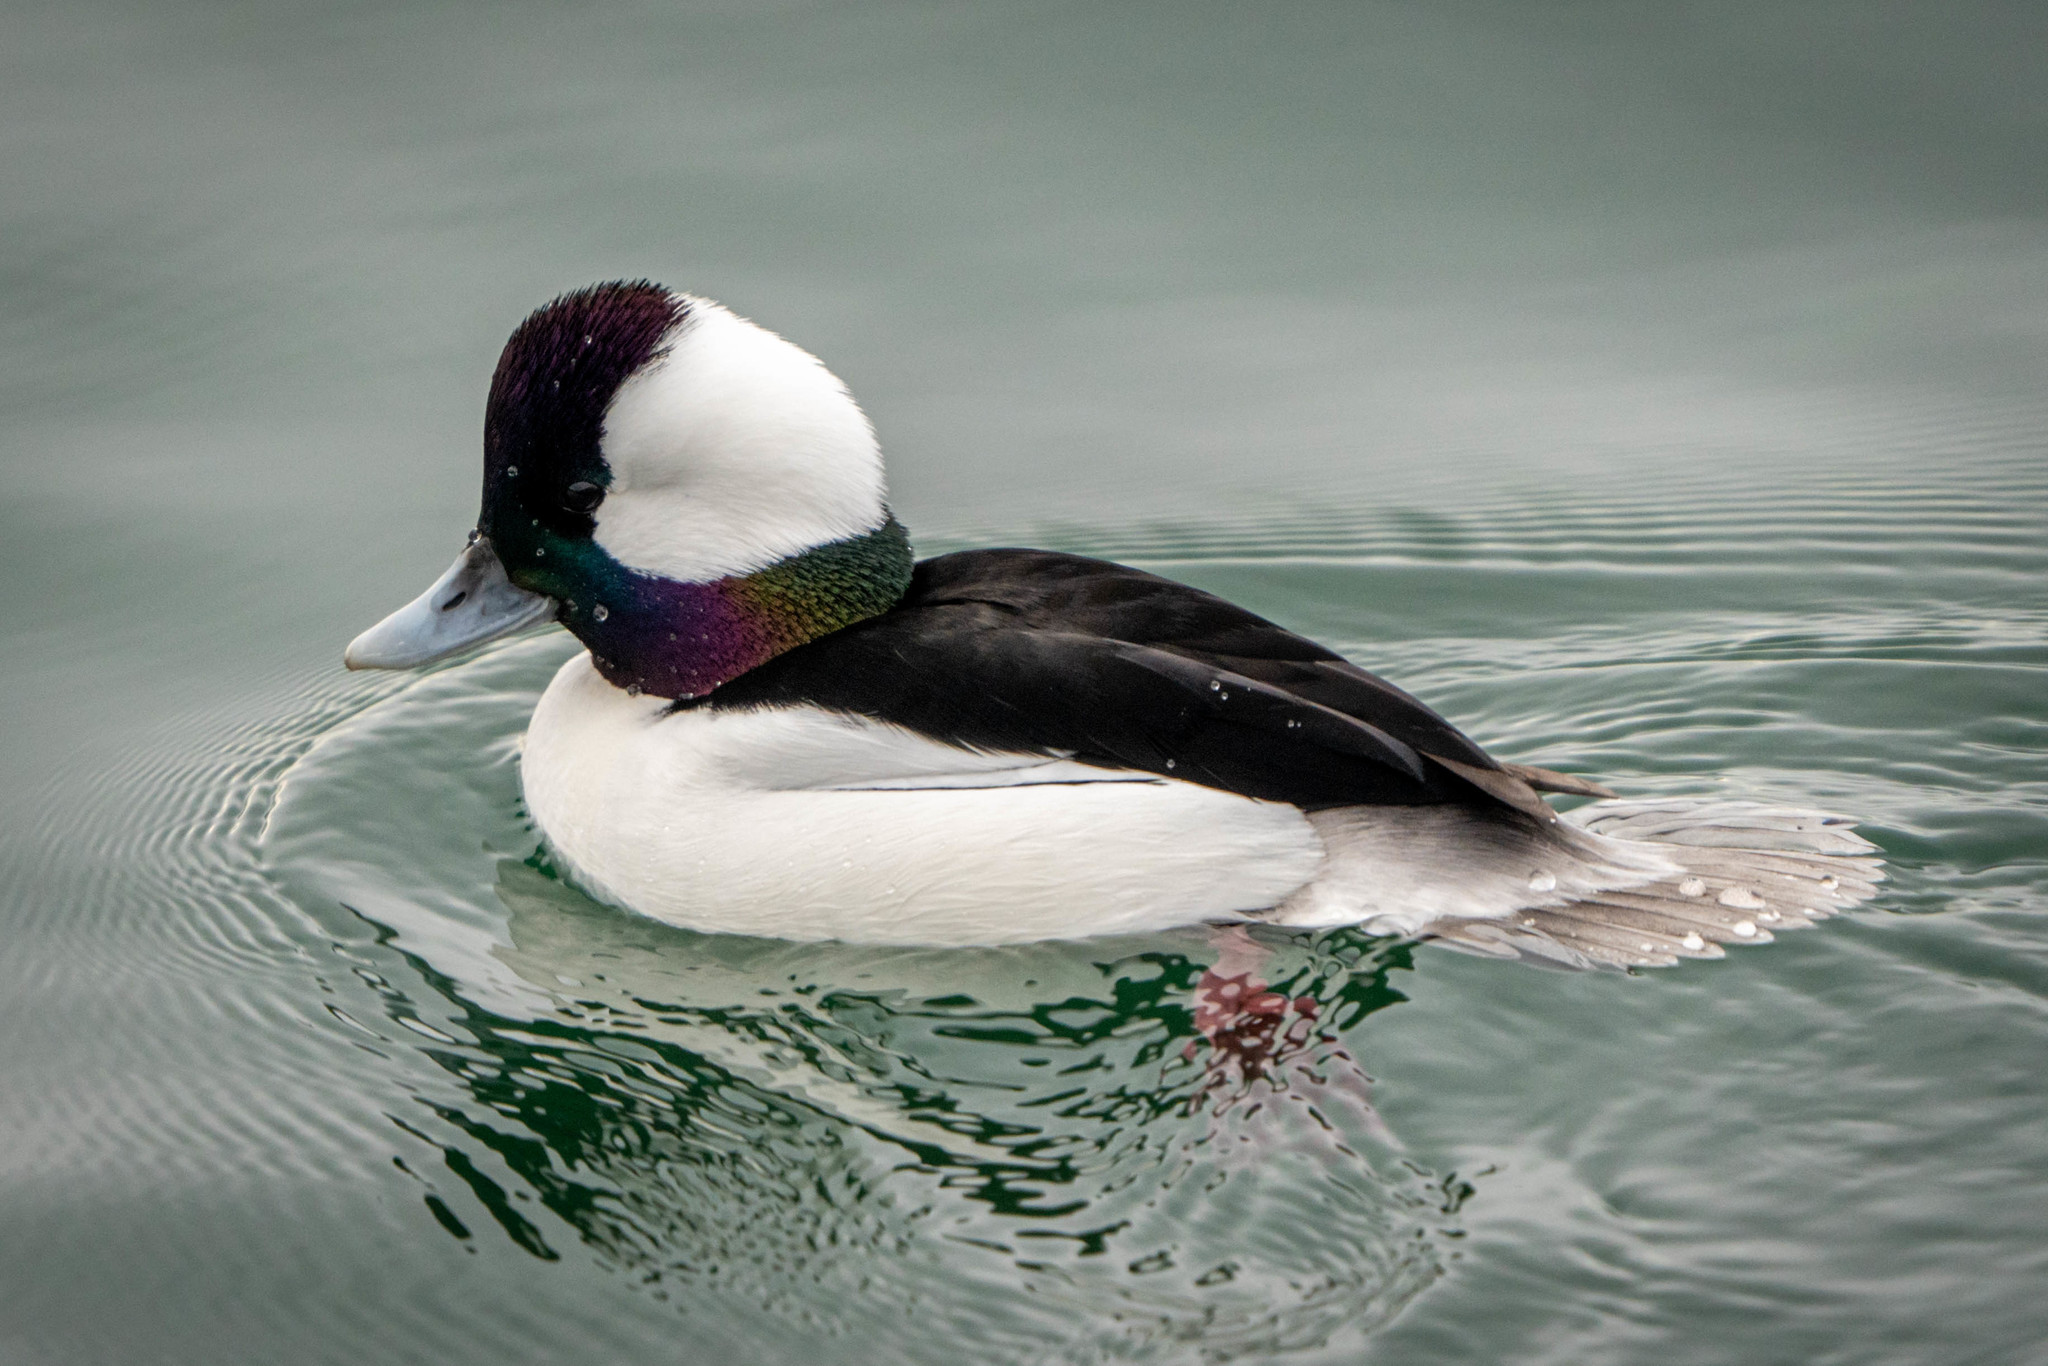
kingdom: Animalia
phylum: Chordata
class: Aves
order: Anseriformes
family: Anatidae
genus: Bucephala
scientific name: Bucephala albeola
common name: Bufflehead
